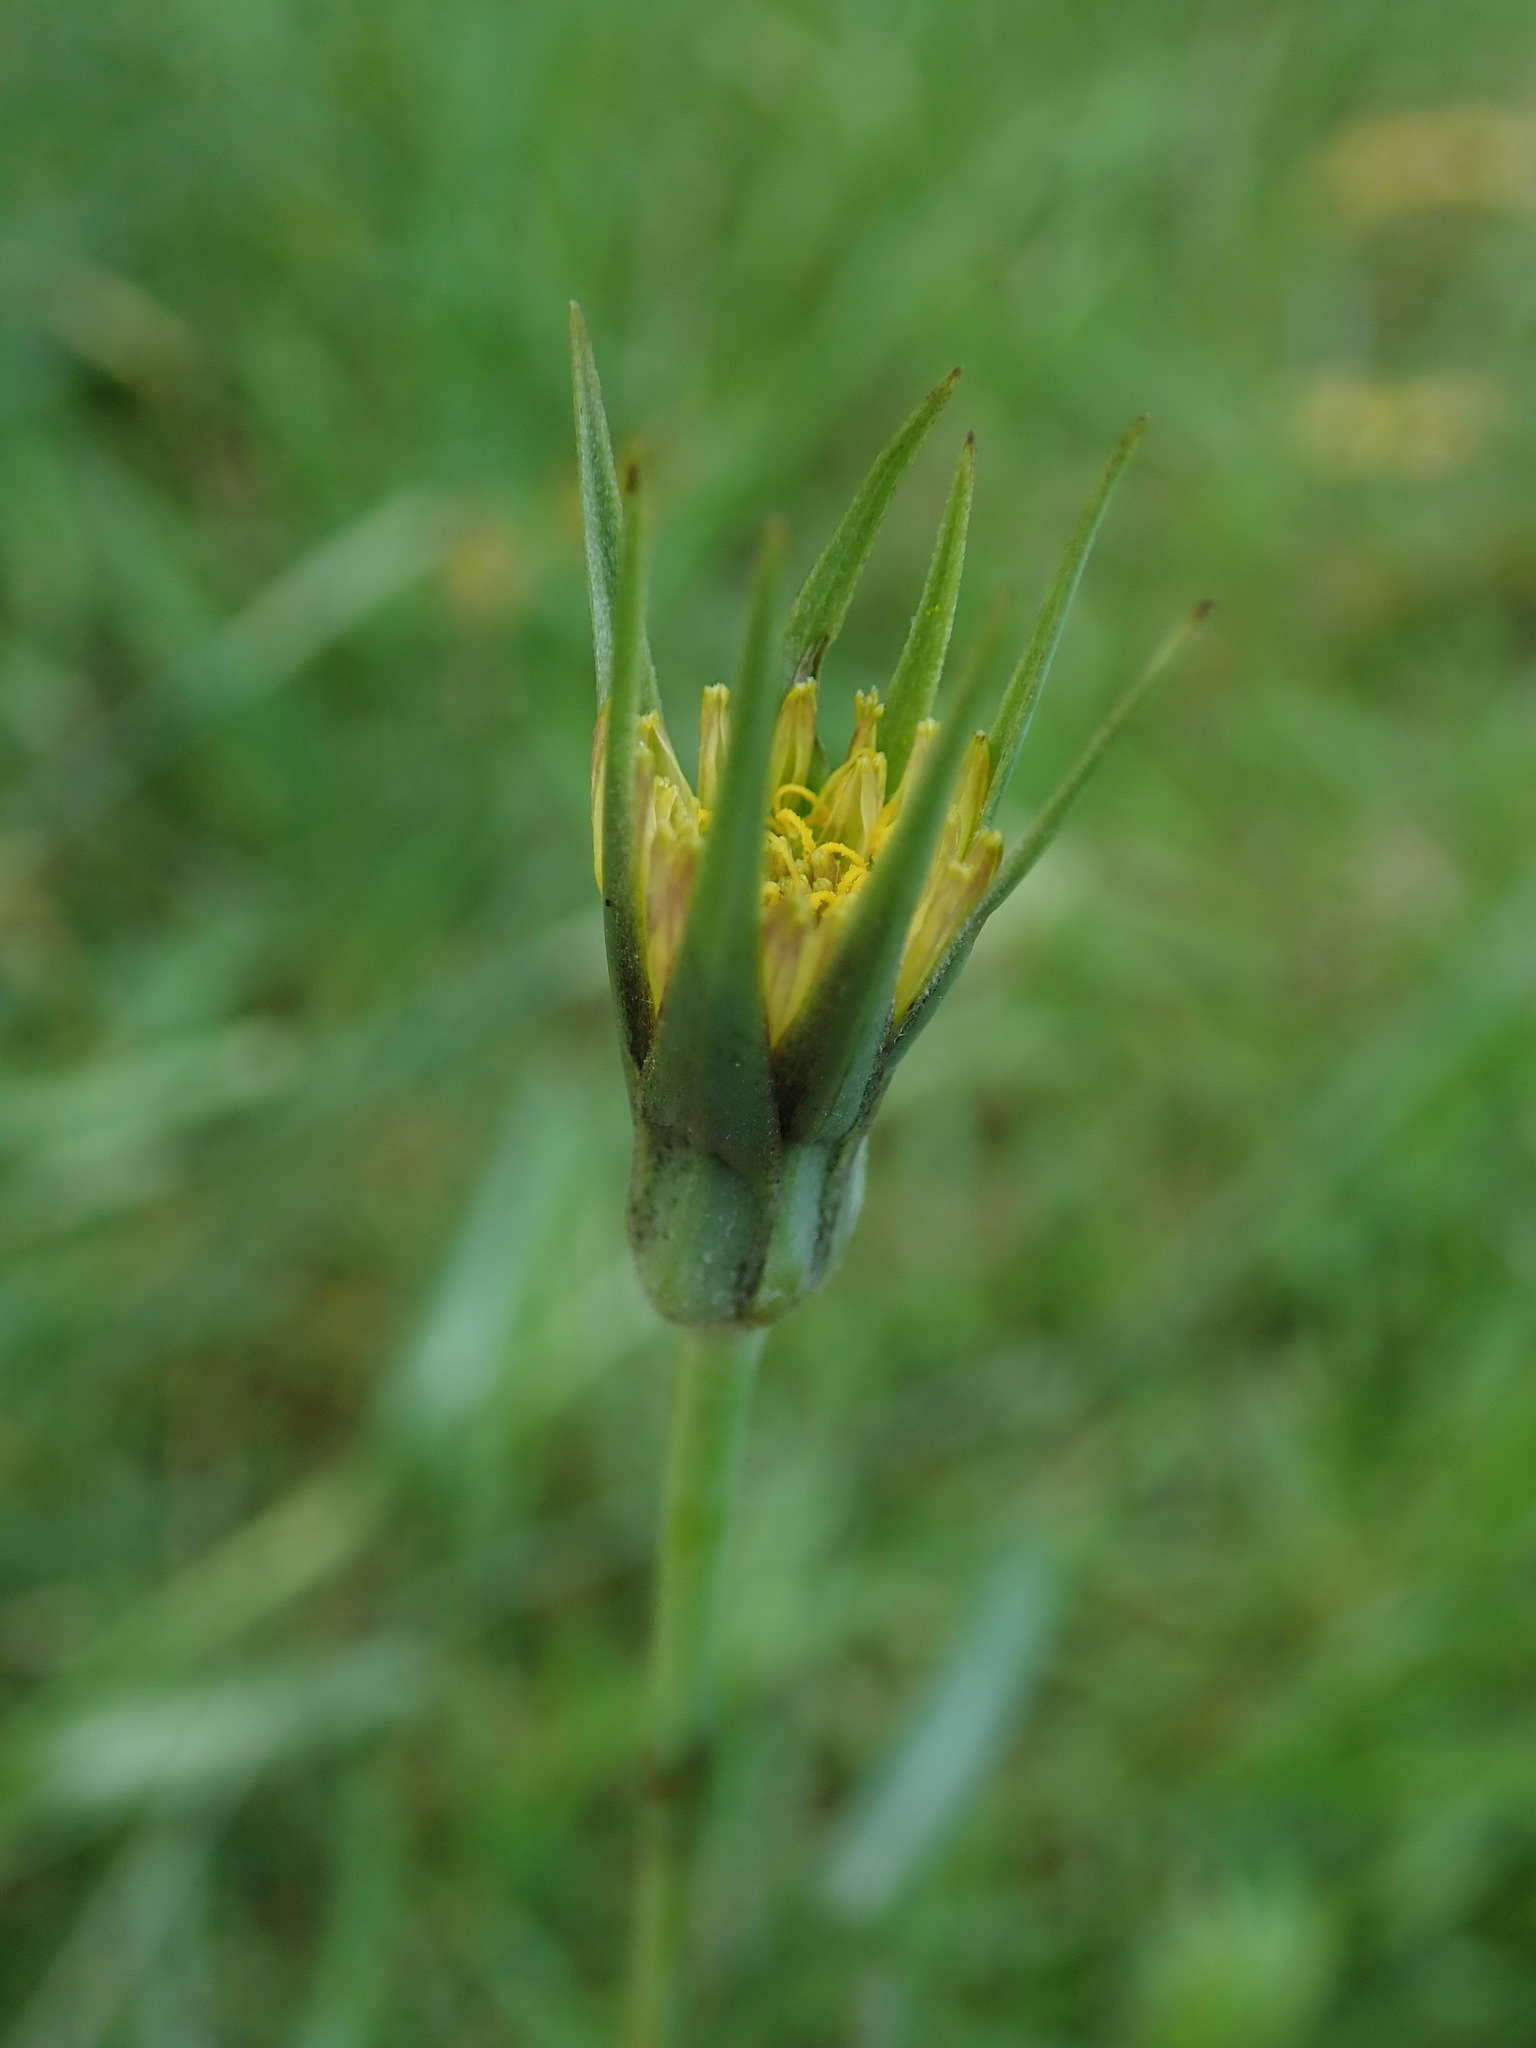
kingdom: Plantae
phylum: Tracheophyta
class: Magnoliopsida
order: Asterales
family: Asteraceae
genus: Tragopogon
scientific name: Tragopogon pratensis
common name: Goat's-beard
